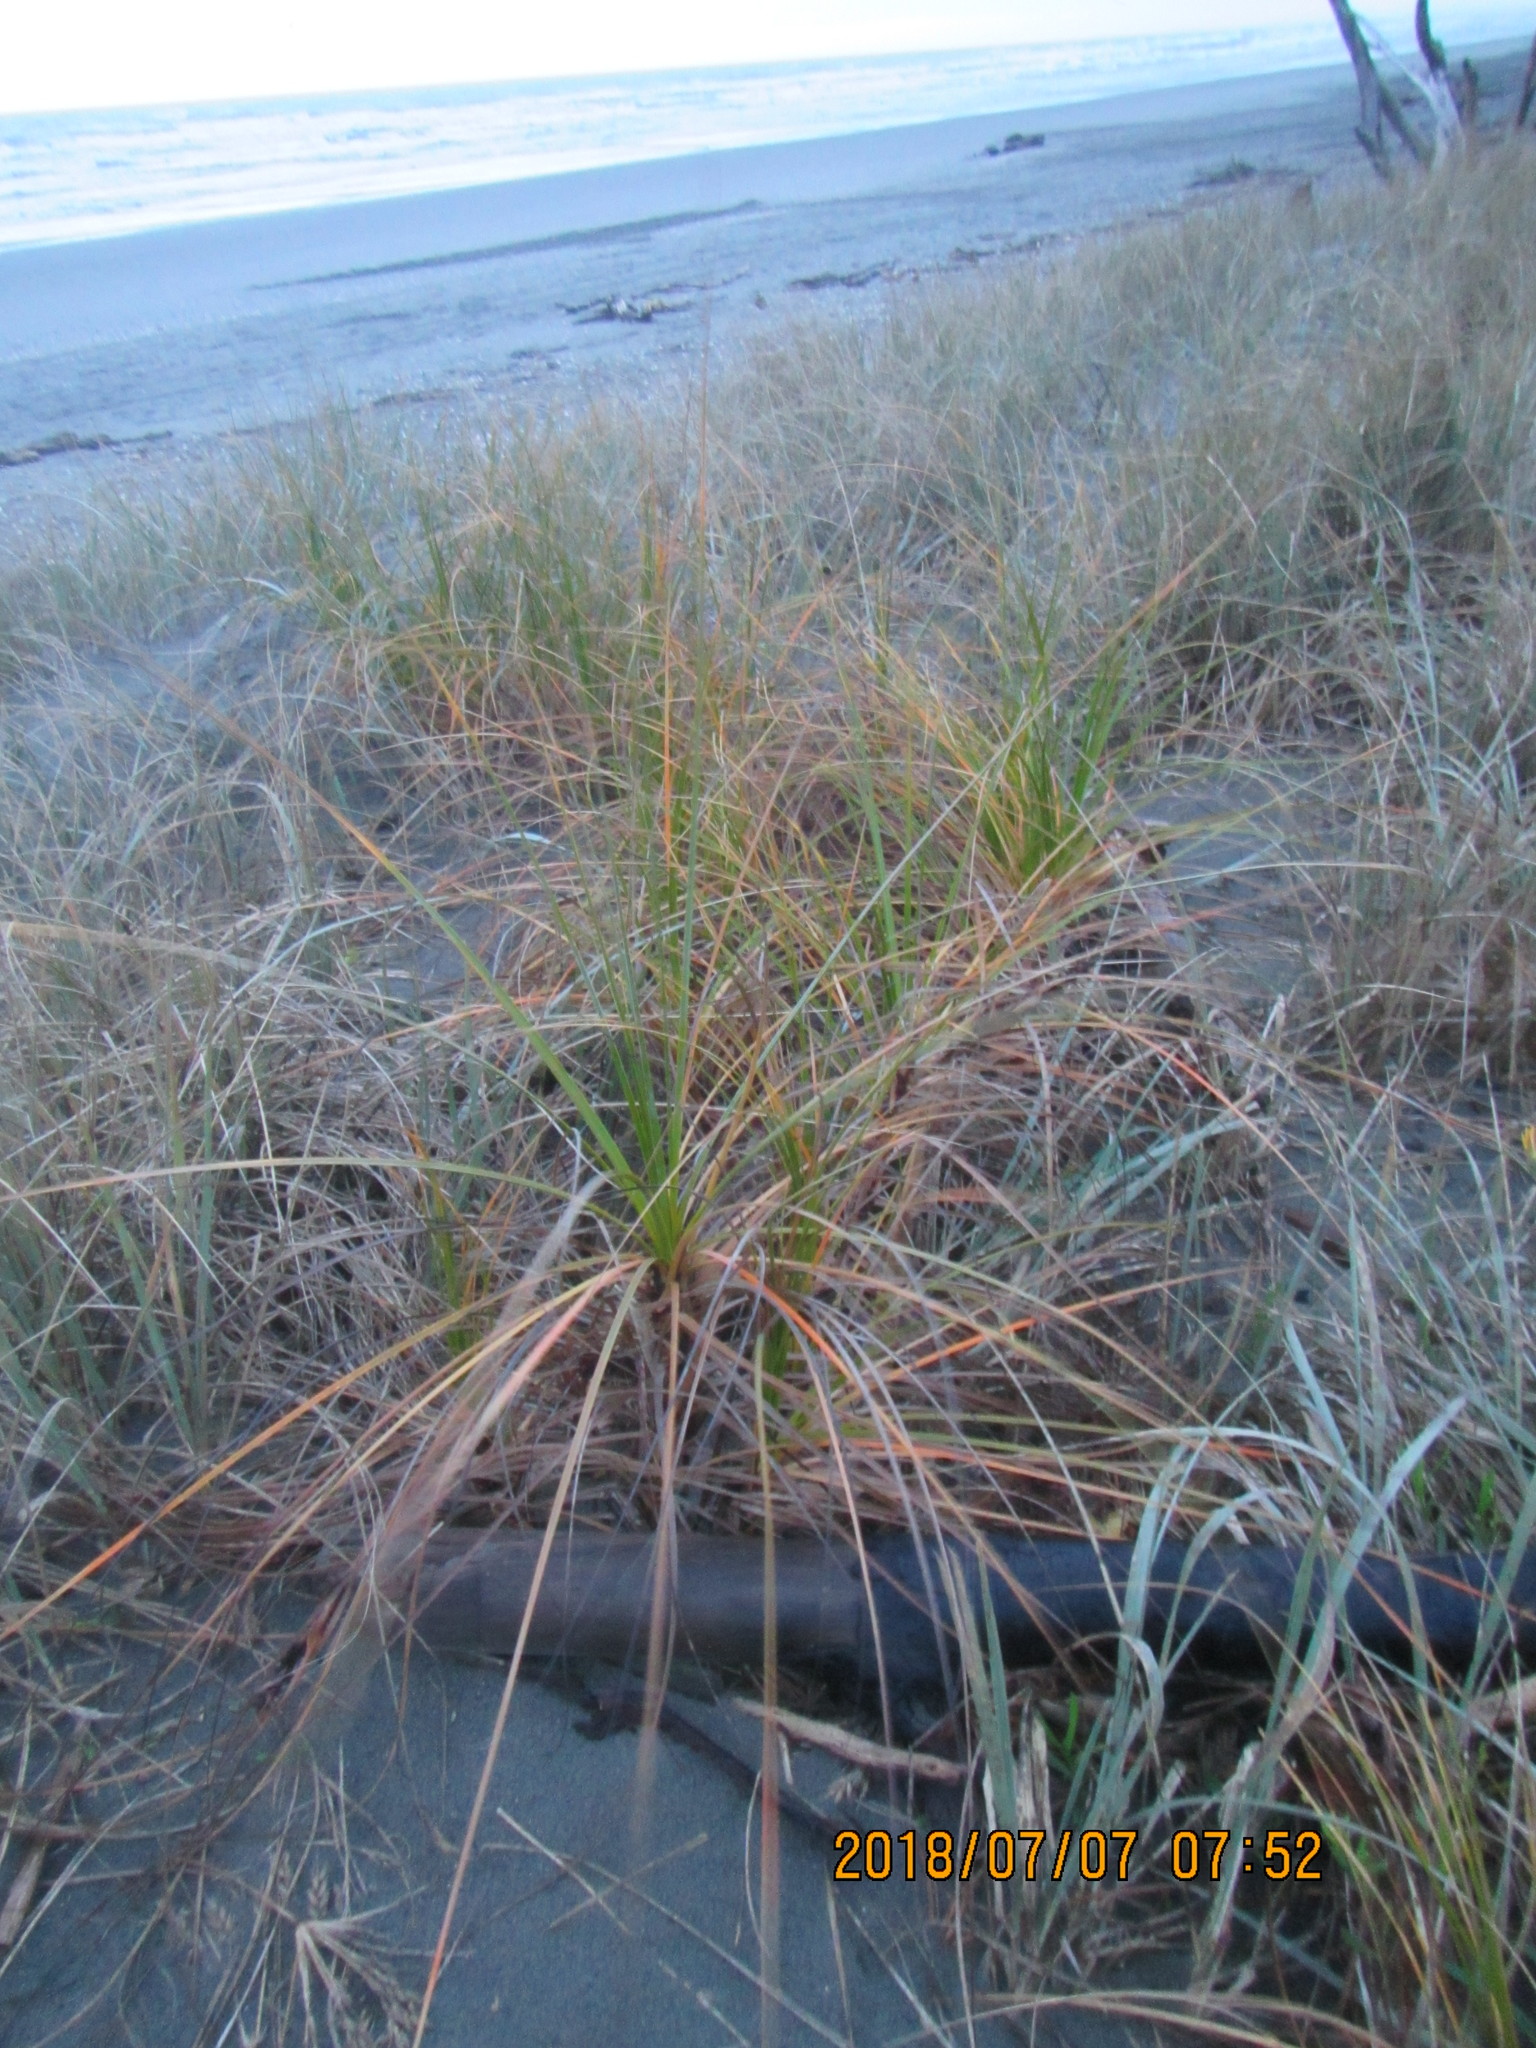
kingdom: Plantae
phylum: Tracheophyta
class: Liliopsida
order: Poales
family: Cyperaceae
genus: Ficinia
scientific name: Ficinia spiralis
